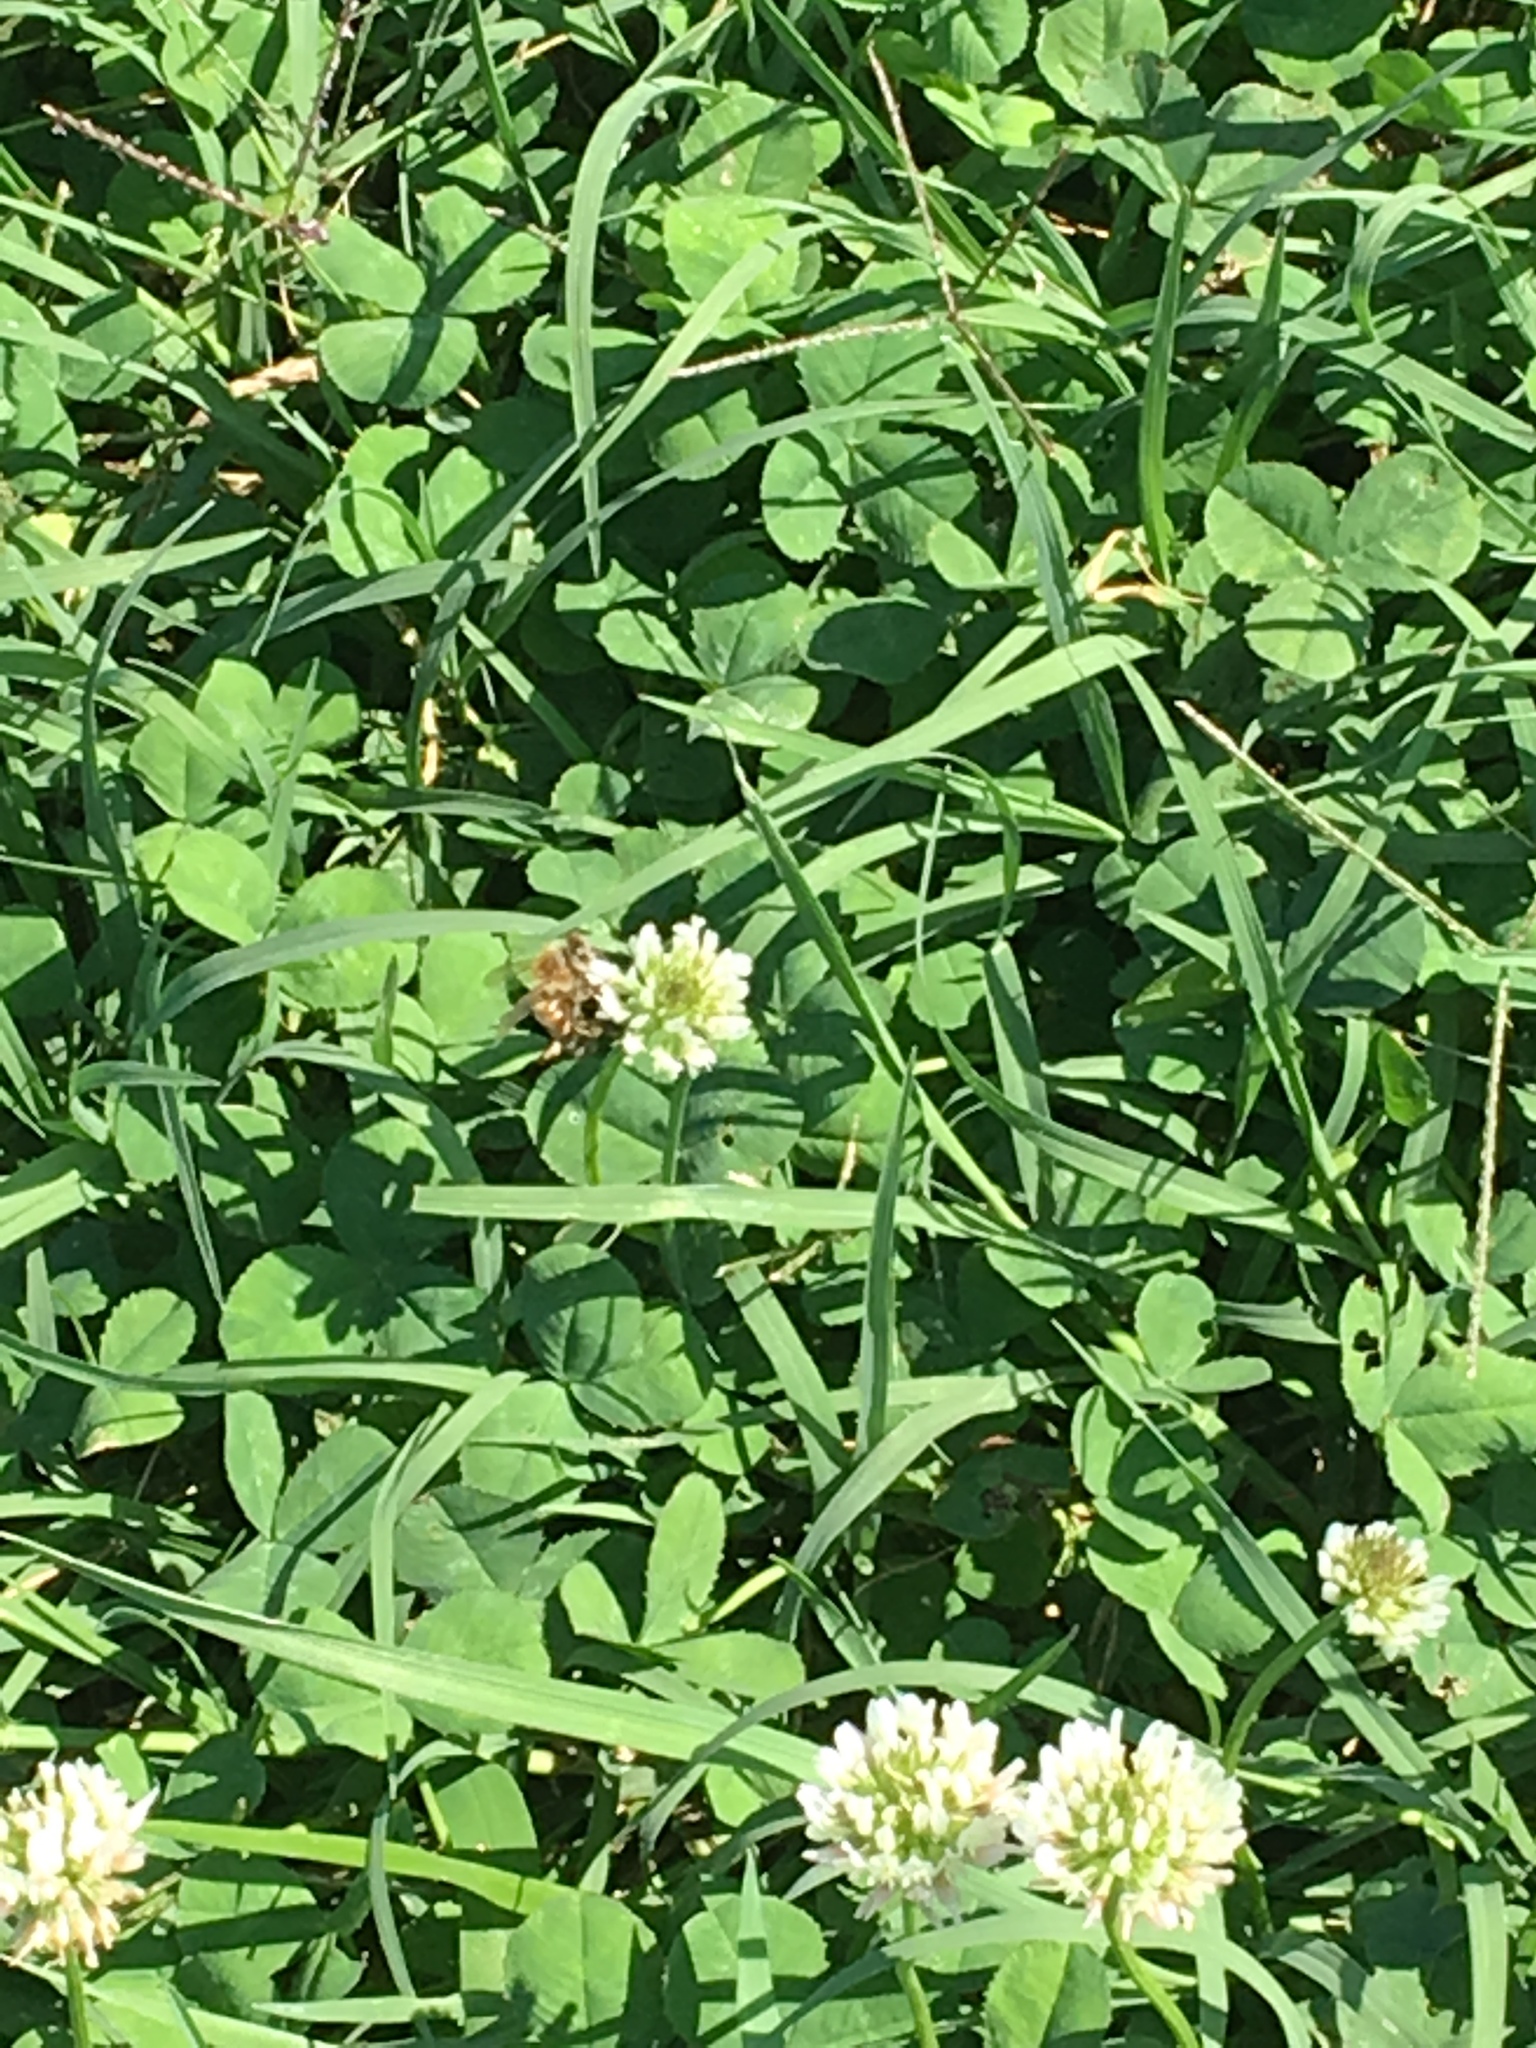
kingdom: Animalia
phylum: Arthropoda
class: Insecta
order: Hymenoptera
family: Apidae
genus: Apis
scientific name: Apis mellifera
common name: Honey bee
